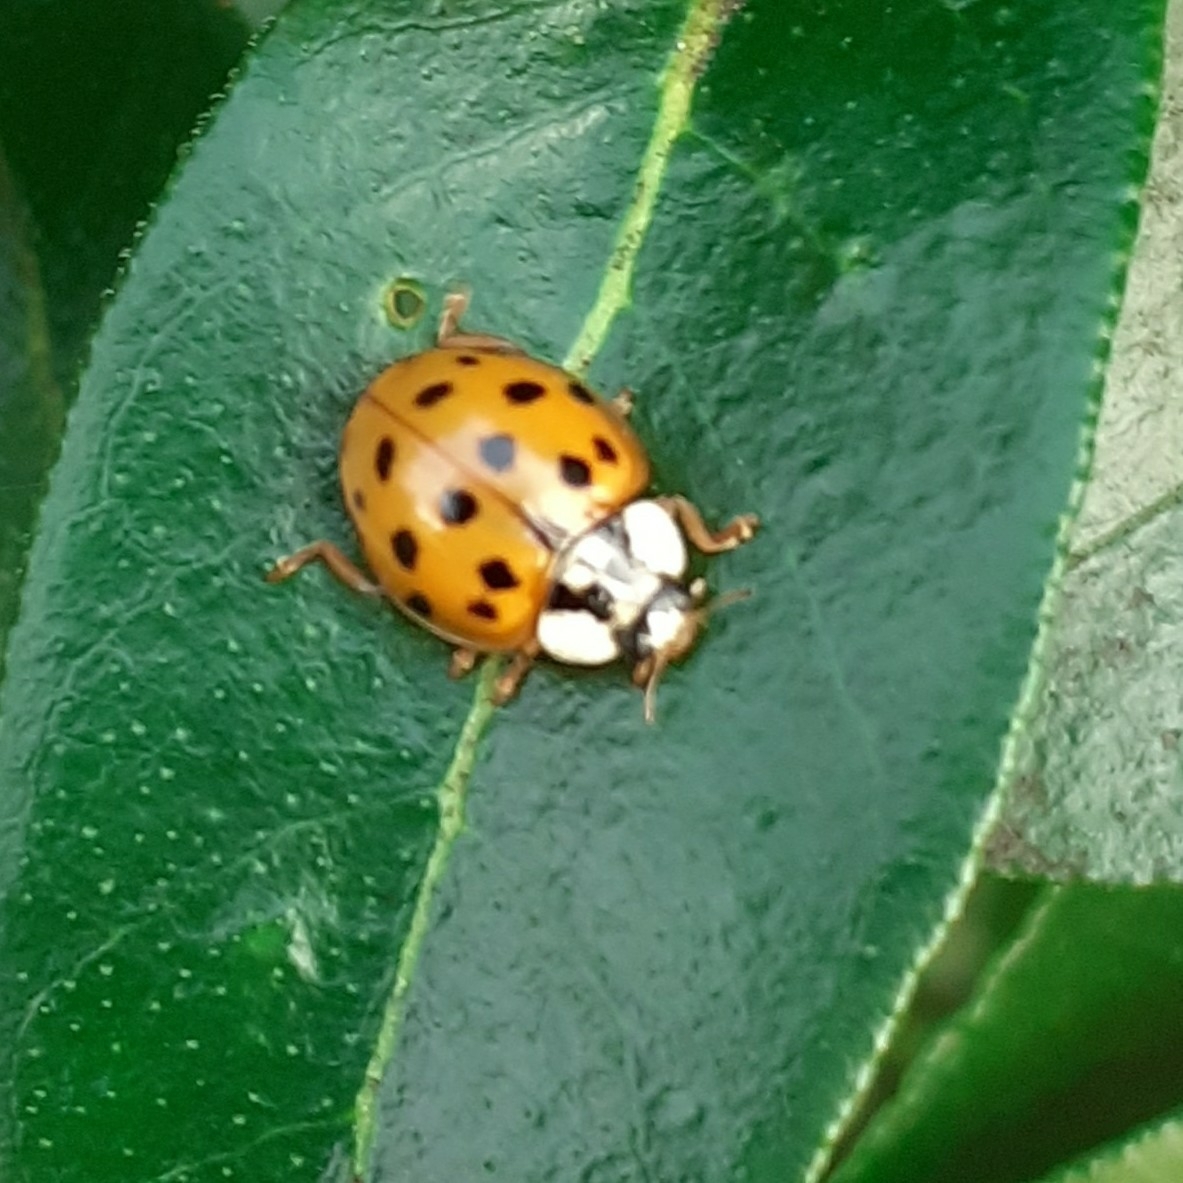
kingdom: Animalia
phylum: Arthropoda
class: Insecta
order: Coleoptera
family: Coccinellidae
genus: Harmonia
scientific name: Harmonia axyridis
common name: Harlequin ladybird
